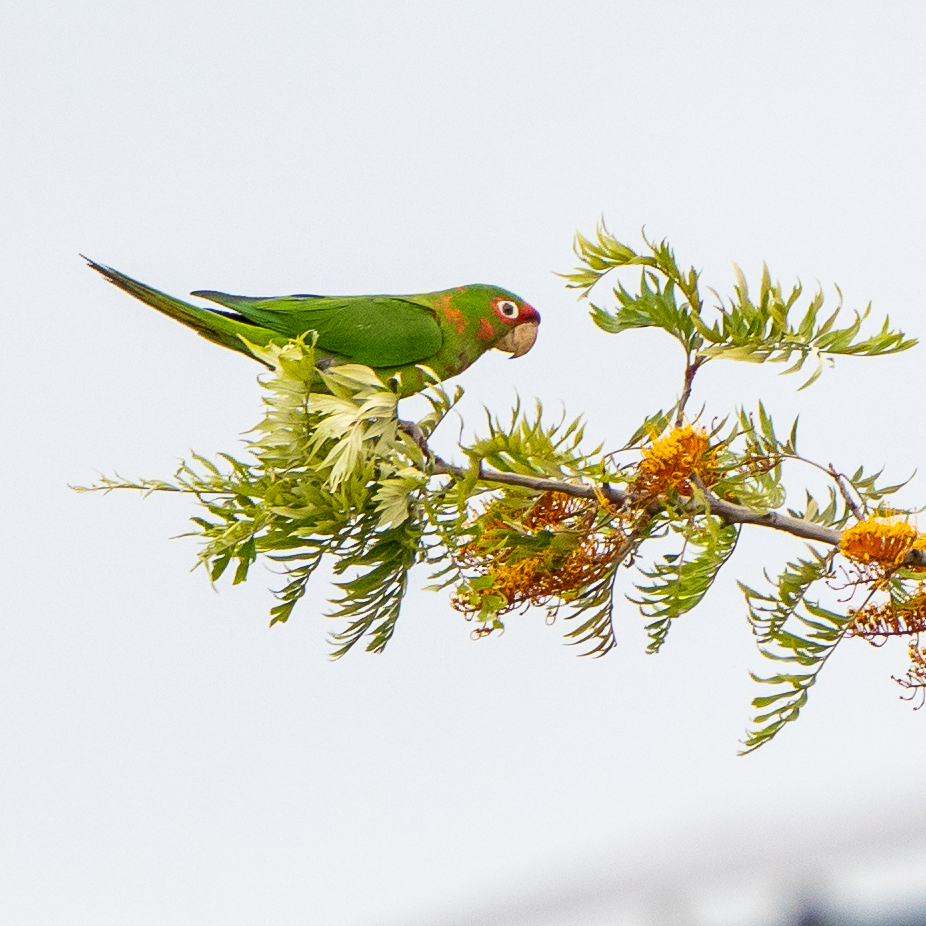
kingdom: Animalia
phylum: Chordata
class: Aves
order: Psittaciformes
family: Psittacidae
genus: Aratinga
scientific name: Aratinga mitrata
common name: Mitred parakeet
